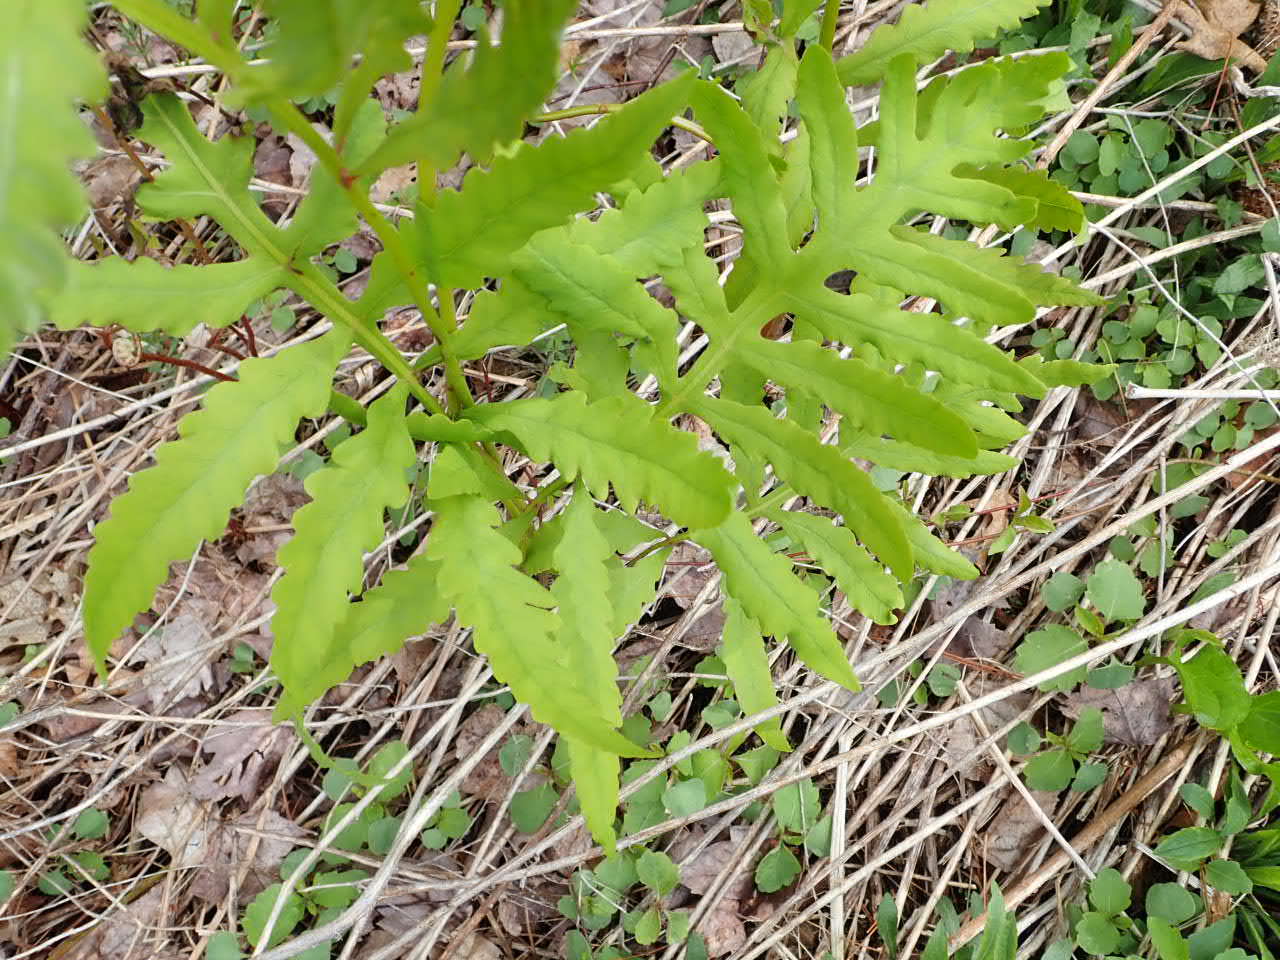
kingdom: Plantae
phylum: Tracheophyta
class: Polypodiopsida
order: Polypodiales
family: Onocleaceae
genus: Onoclea
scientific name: Onoclea sensibilis
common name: Sensitive fern
